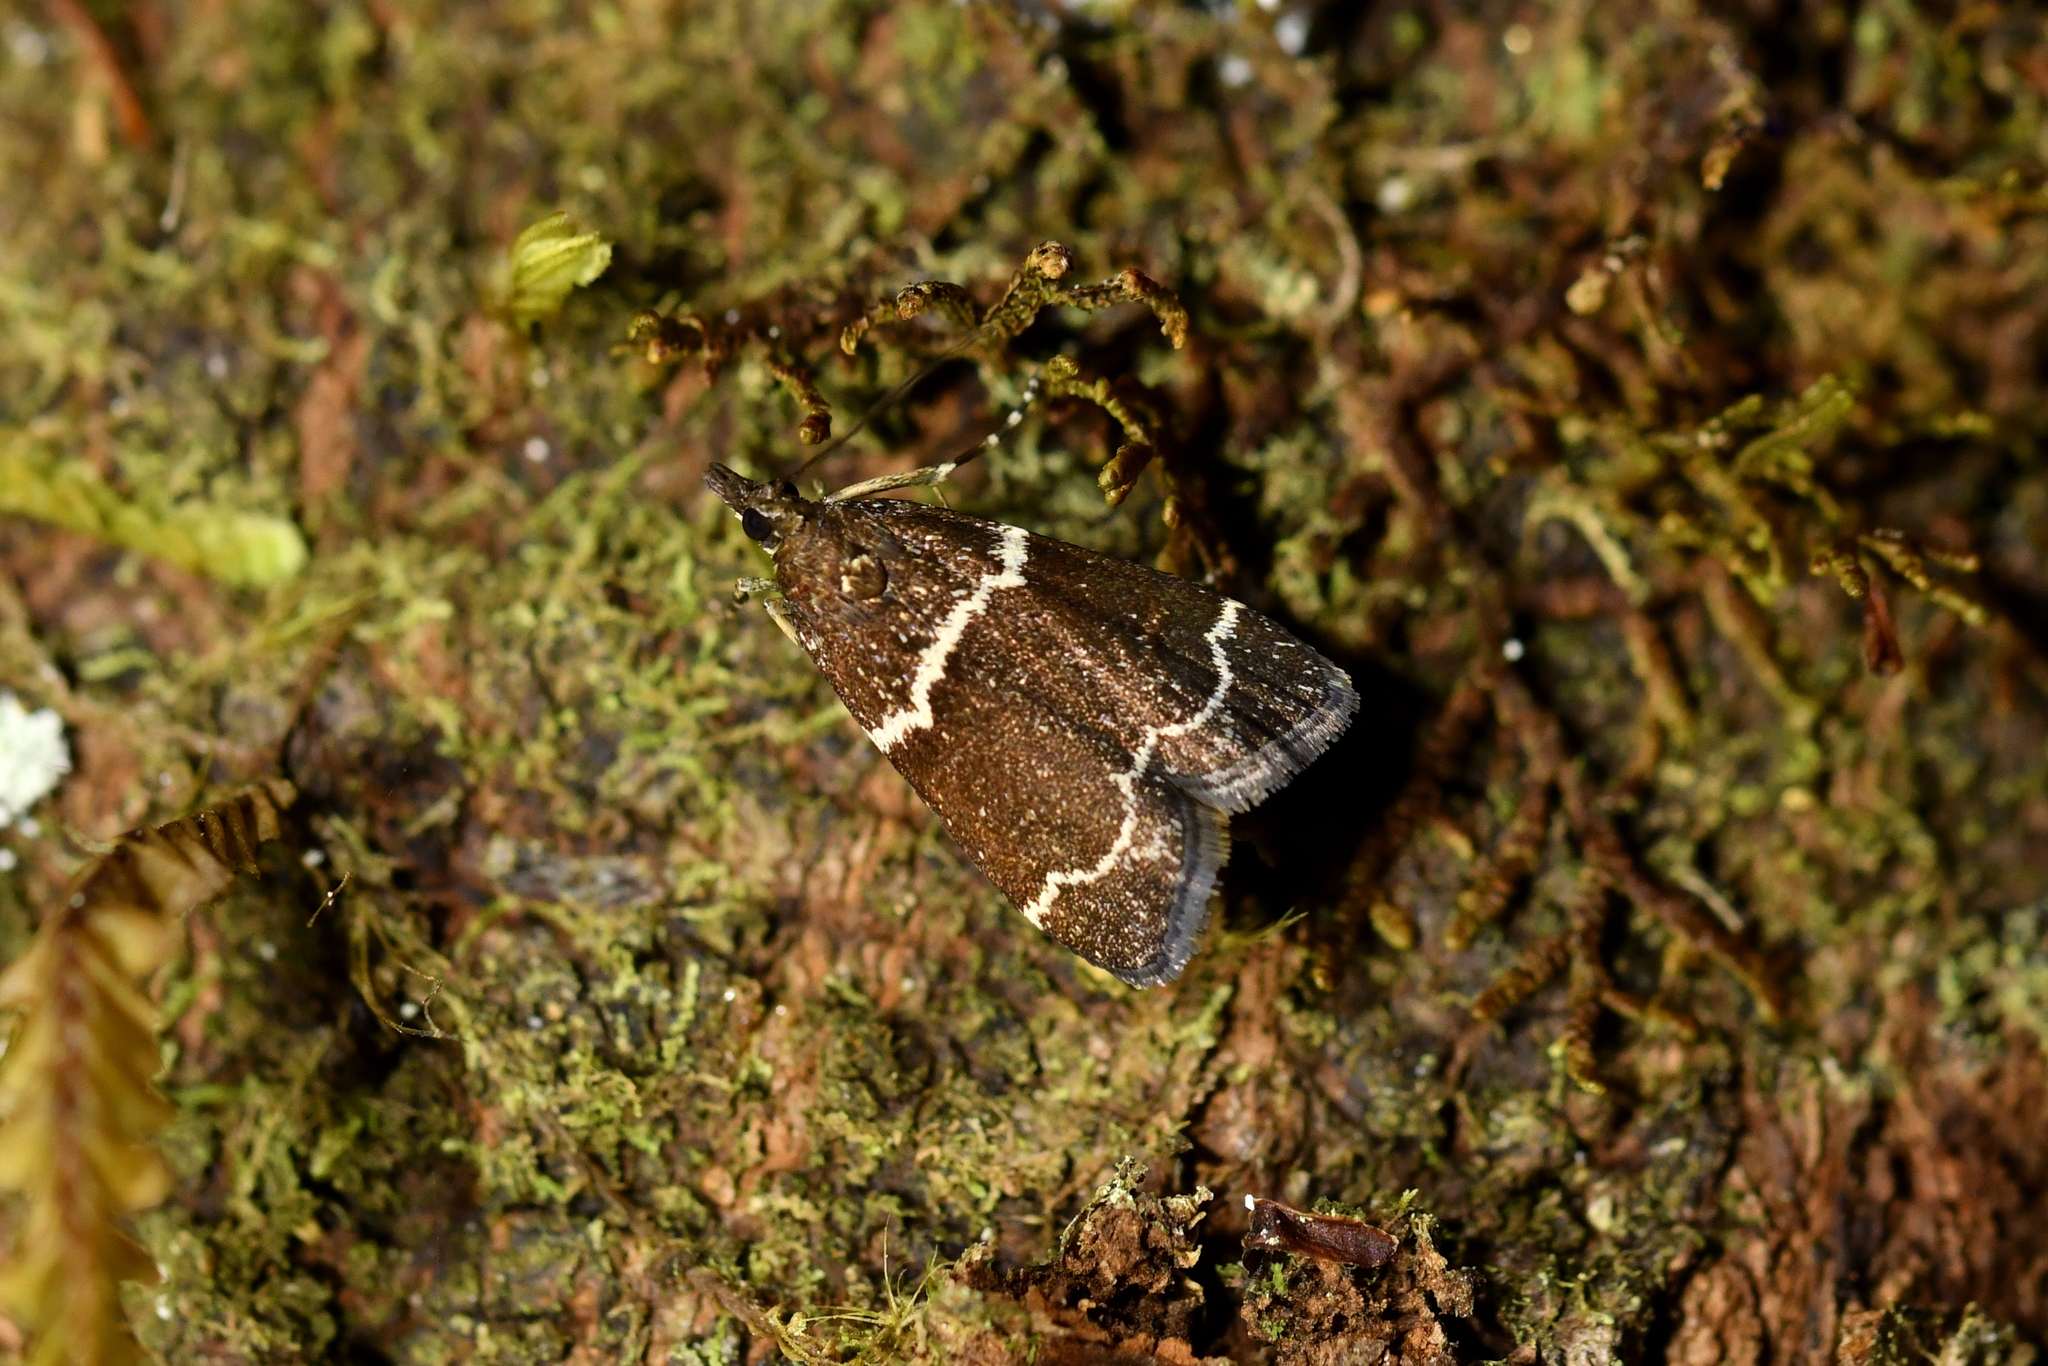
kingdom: Animalia
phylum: Arthropoda
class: Insecta
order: Lepidoptera
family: Crambidae
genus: Eudonia
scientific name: Eudonia leucogramma
